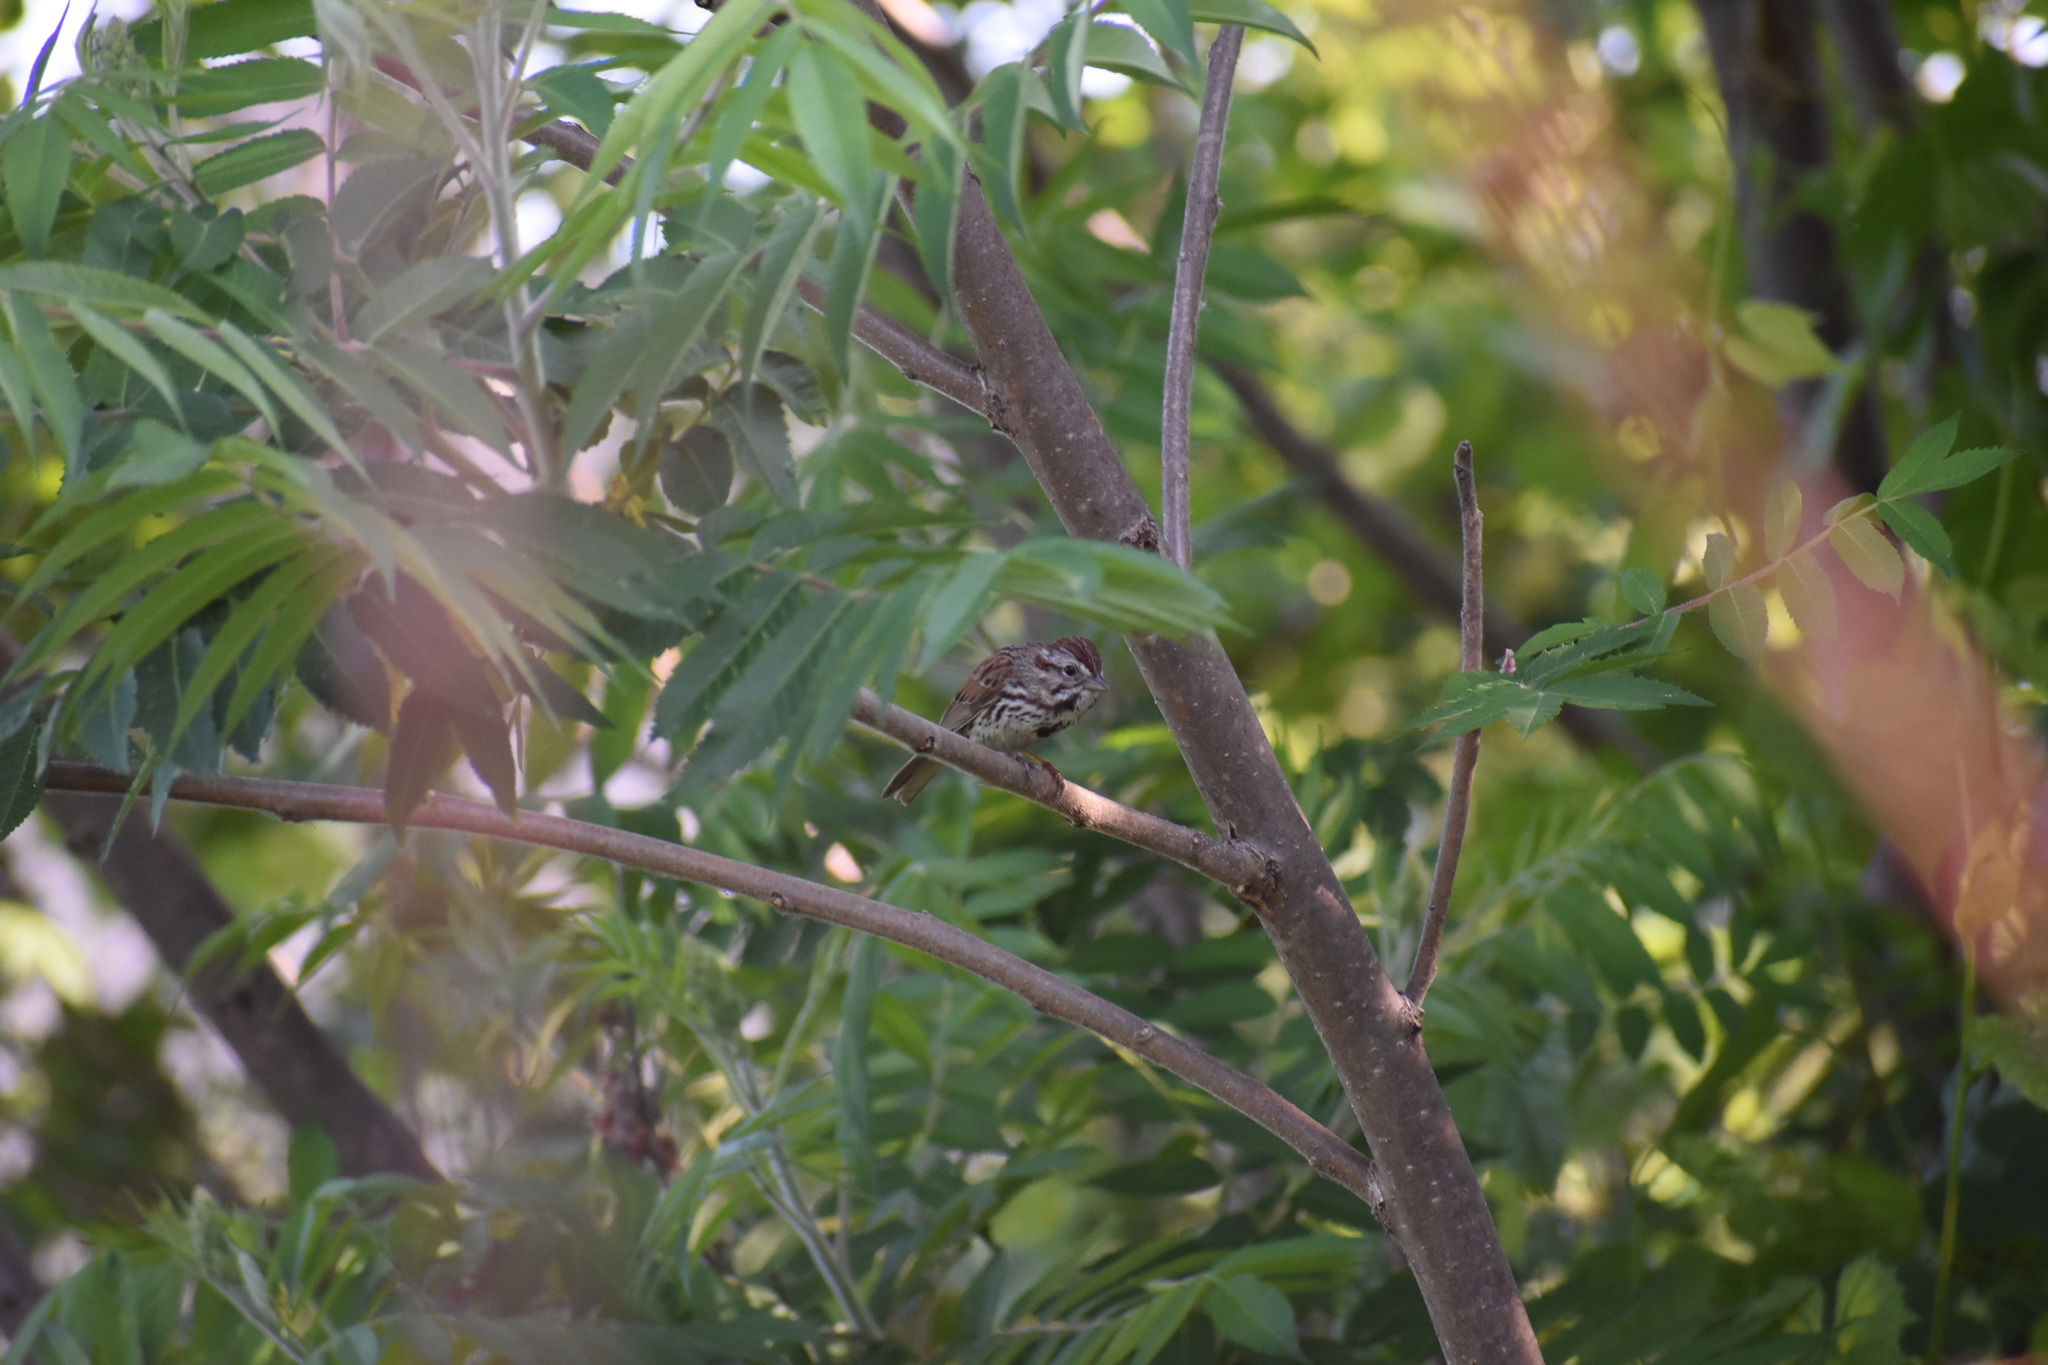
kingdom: Animalia
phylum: Chordata
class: Aves
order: Passeriformes
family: Passerellidae
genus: Melospiza
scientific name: Melospiza melodia
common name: Song sparrow
